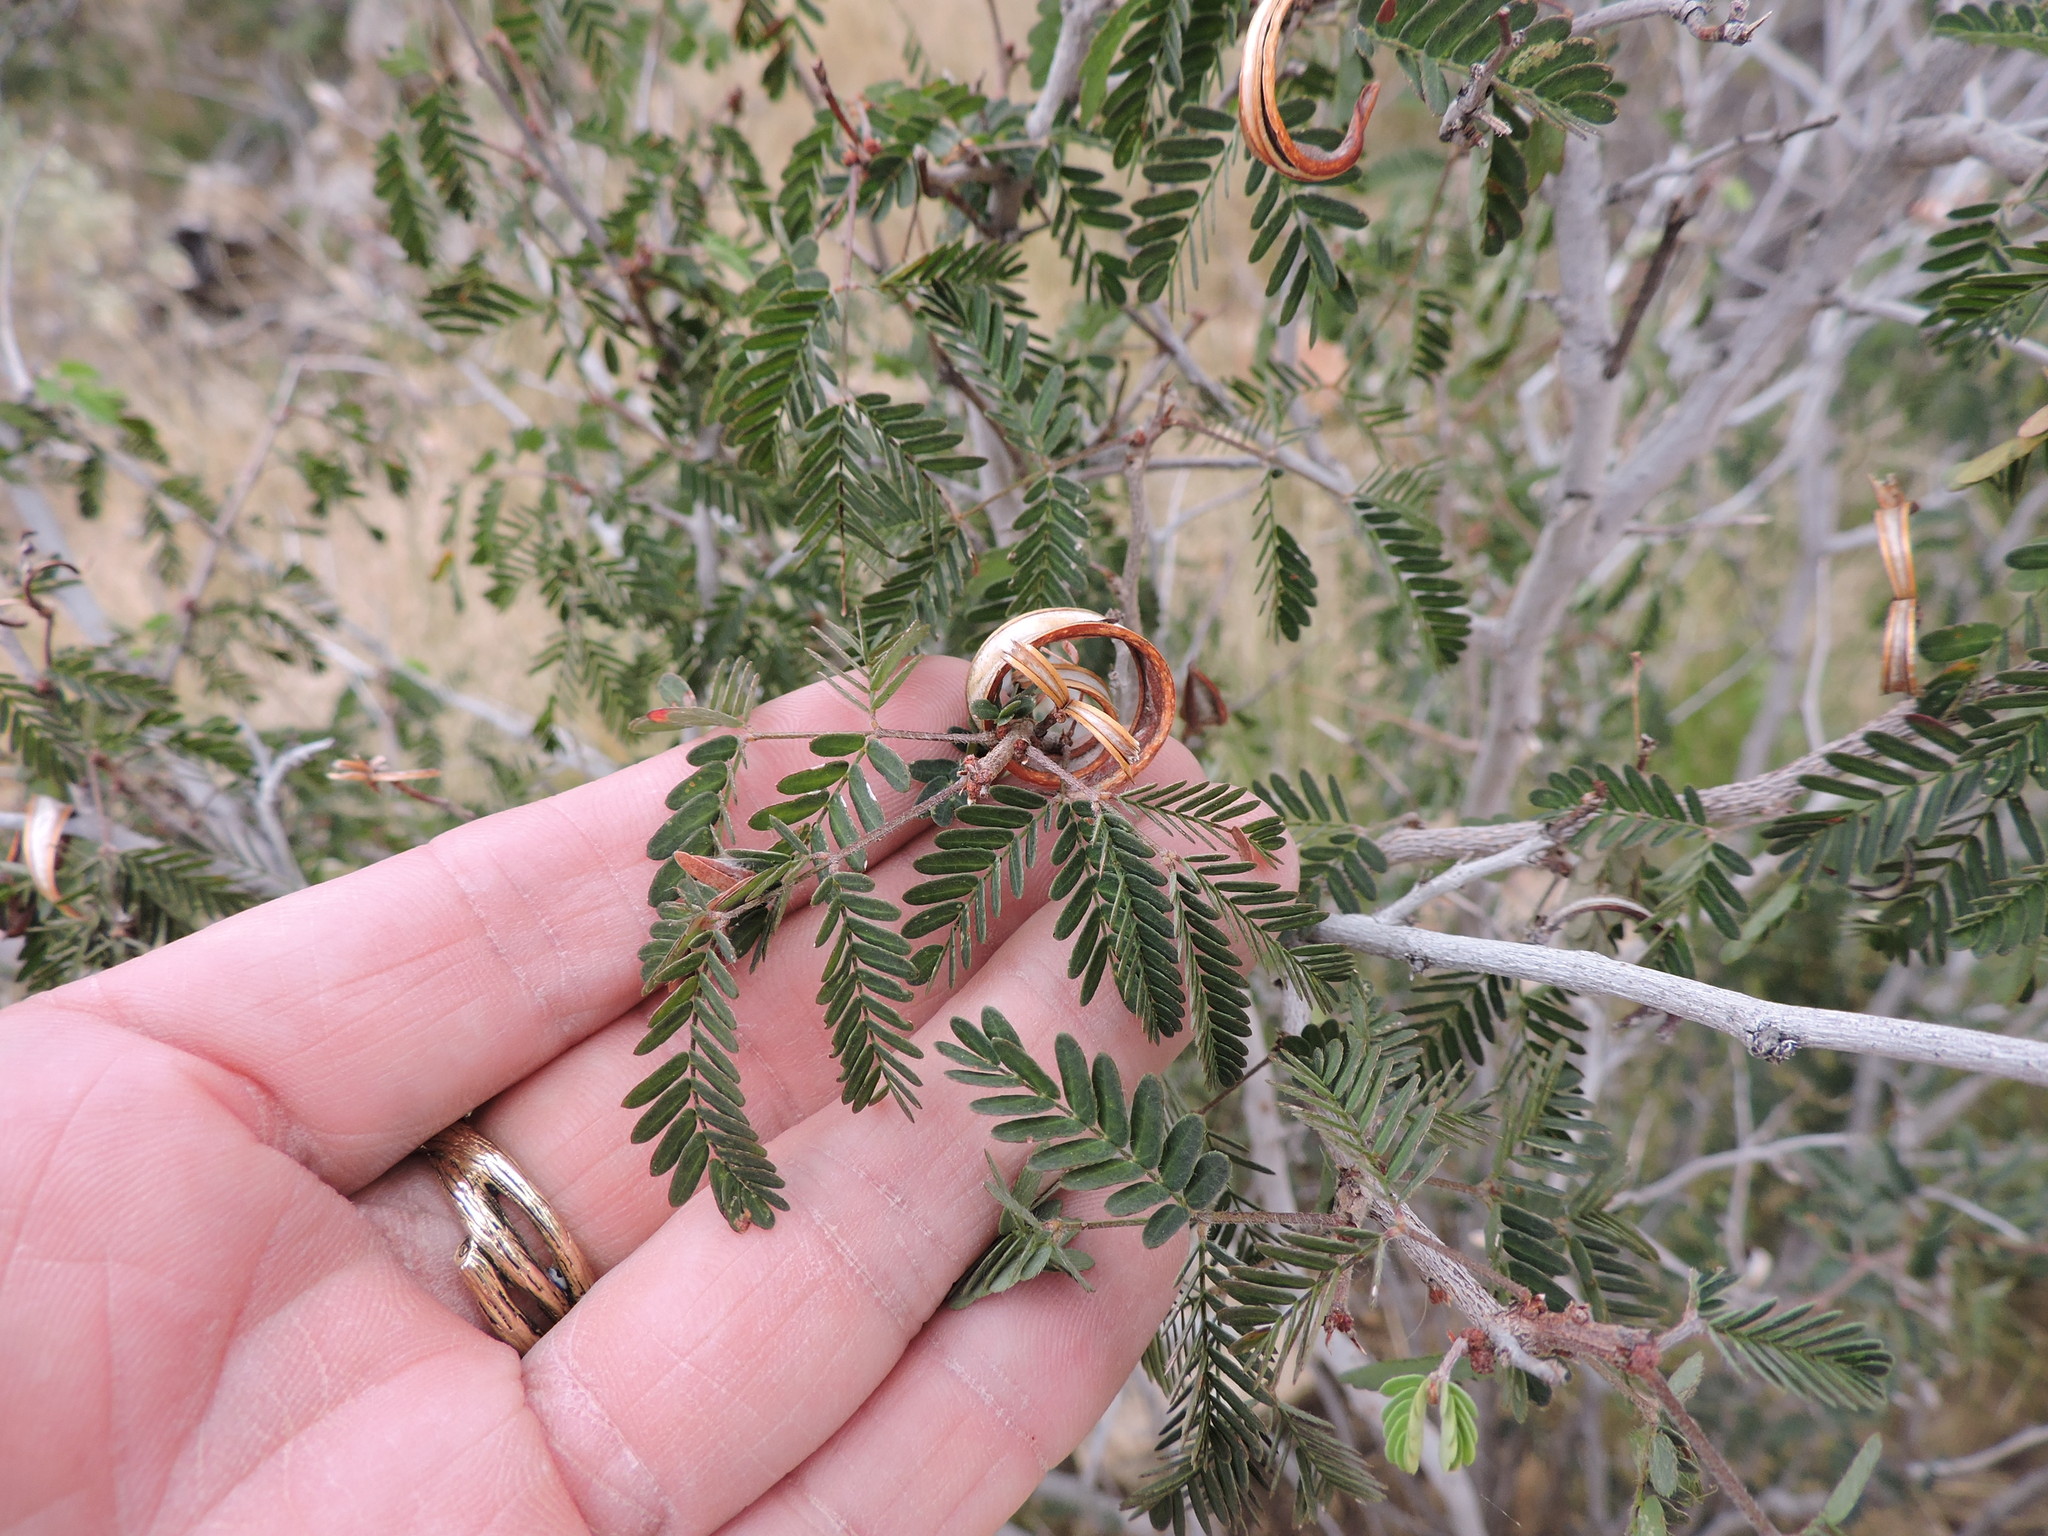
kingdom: Plantae
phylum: Tracheophyta
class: Magnoliopsida
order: Fabales
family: Fabaceae
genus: Calliandra
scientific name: Calliandra eriophylla
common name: Fairy-duster
